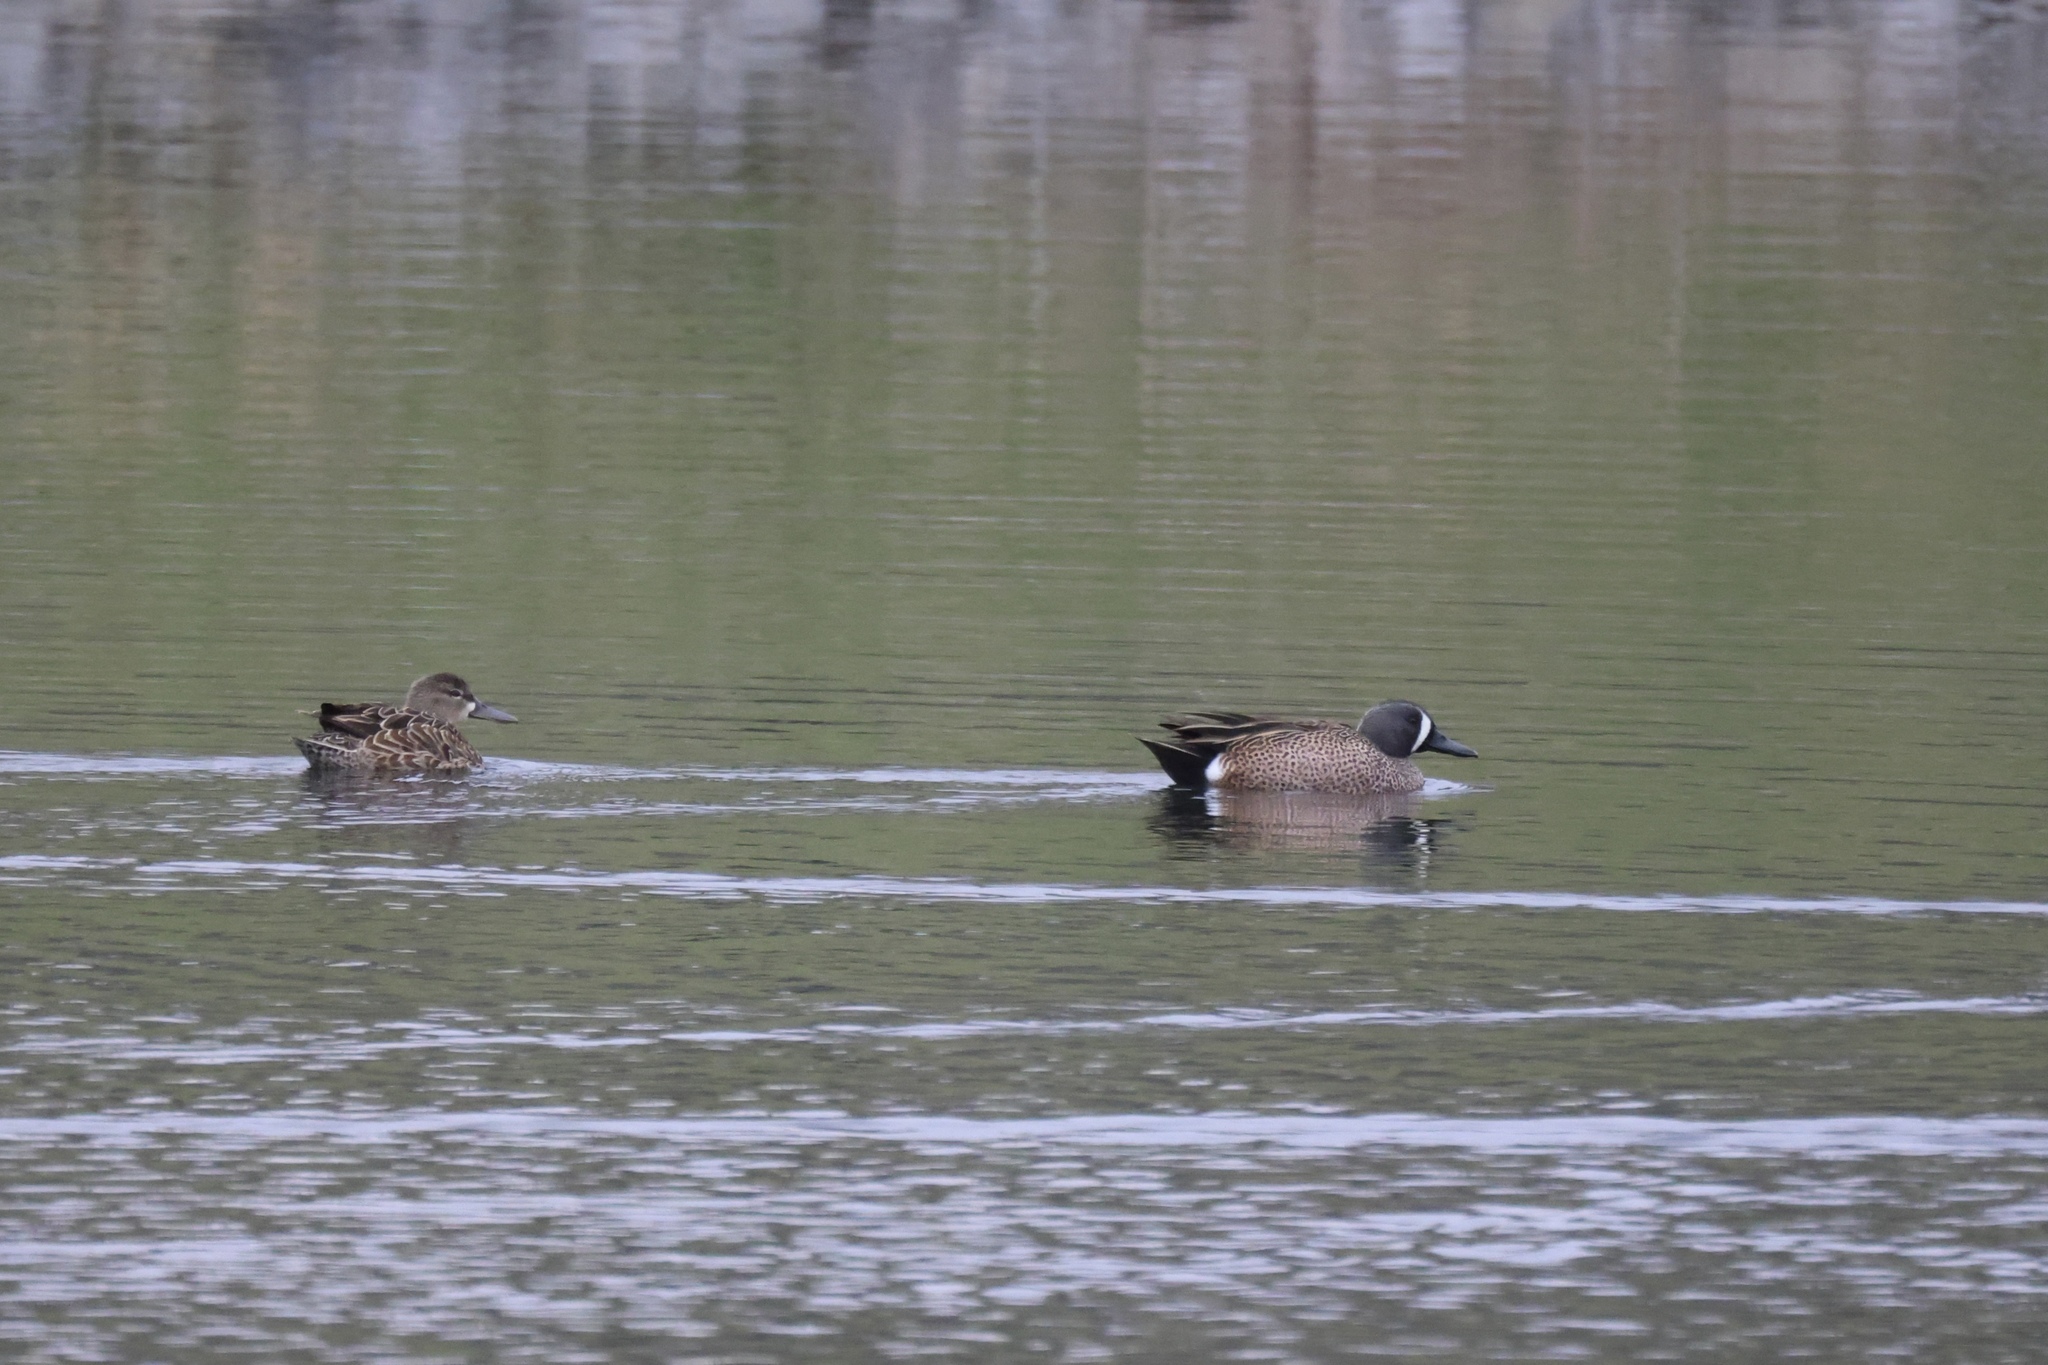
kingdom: Animalia
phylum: Chordata
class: Aves
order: Anseriformes
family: Anatidae
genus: Spatula
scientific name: Spatula discors
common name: Blue-winged teal
